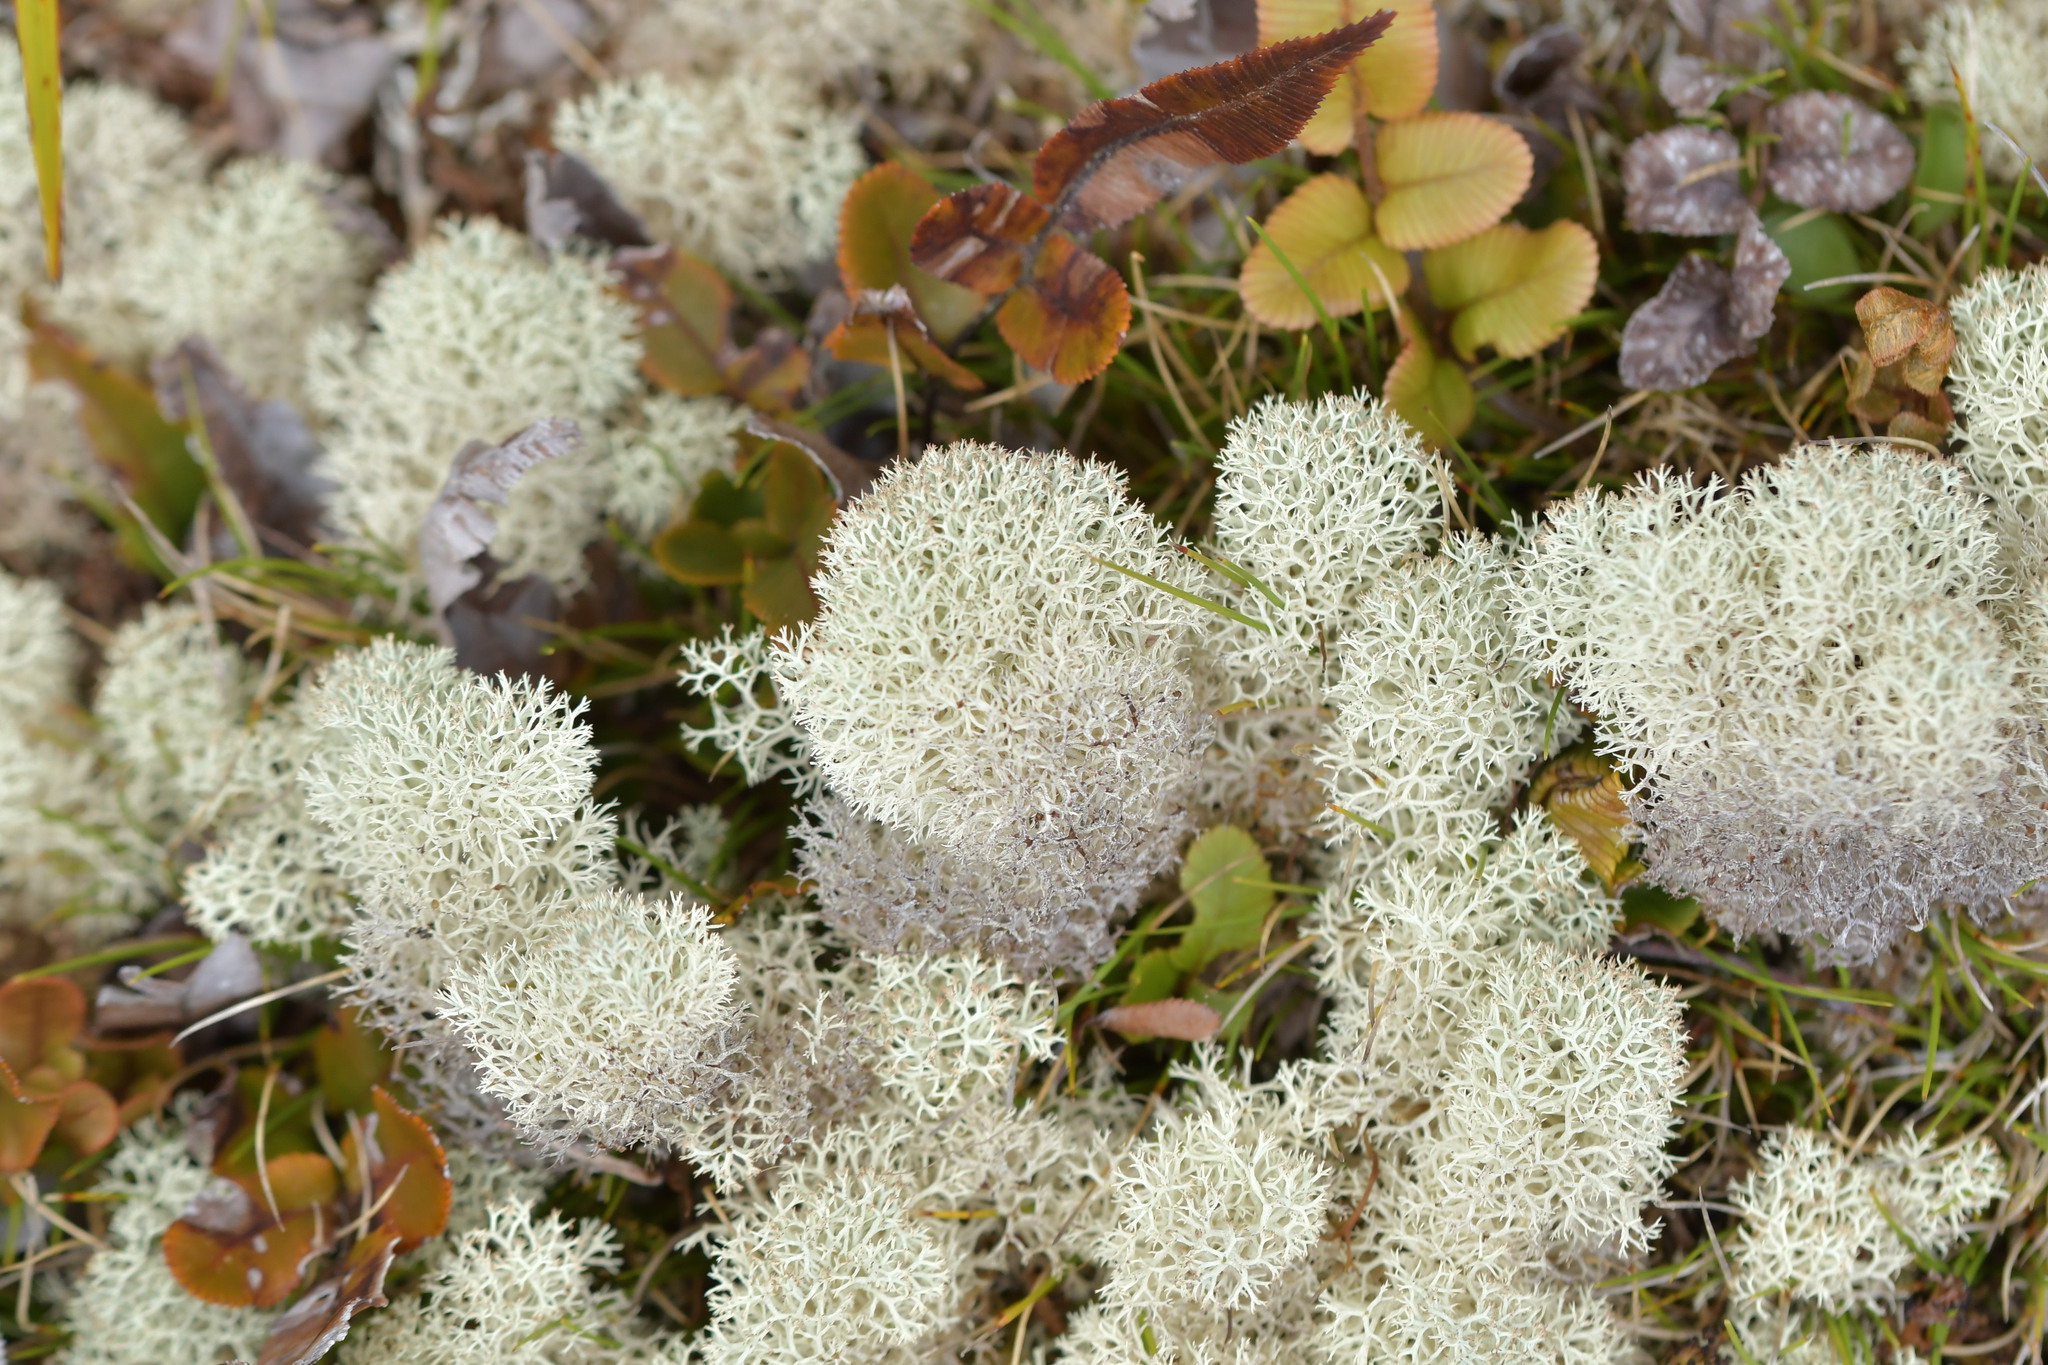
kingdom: Fungi
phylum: Ascomycota
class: Lecanoromycetes
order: Lecanorales
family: Cladoniaceae
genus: Cladonia
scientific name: Cladonia confusa
